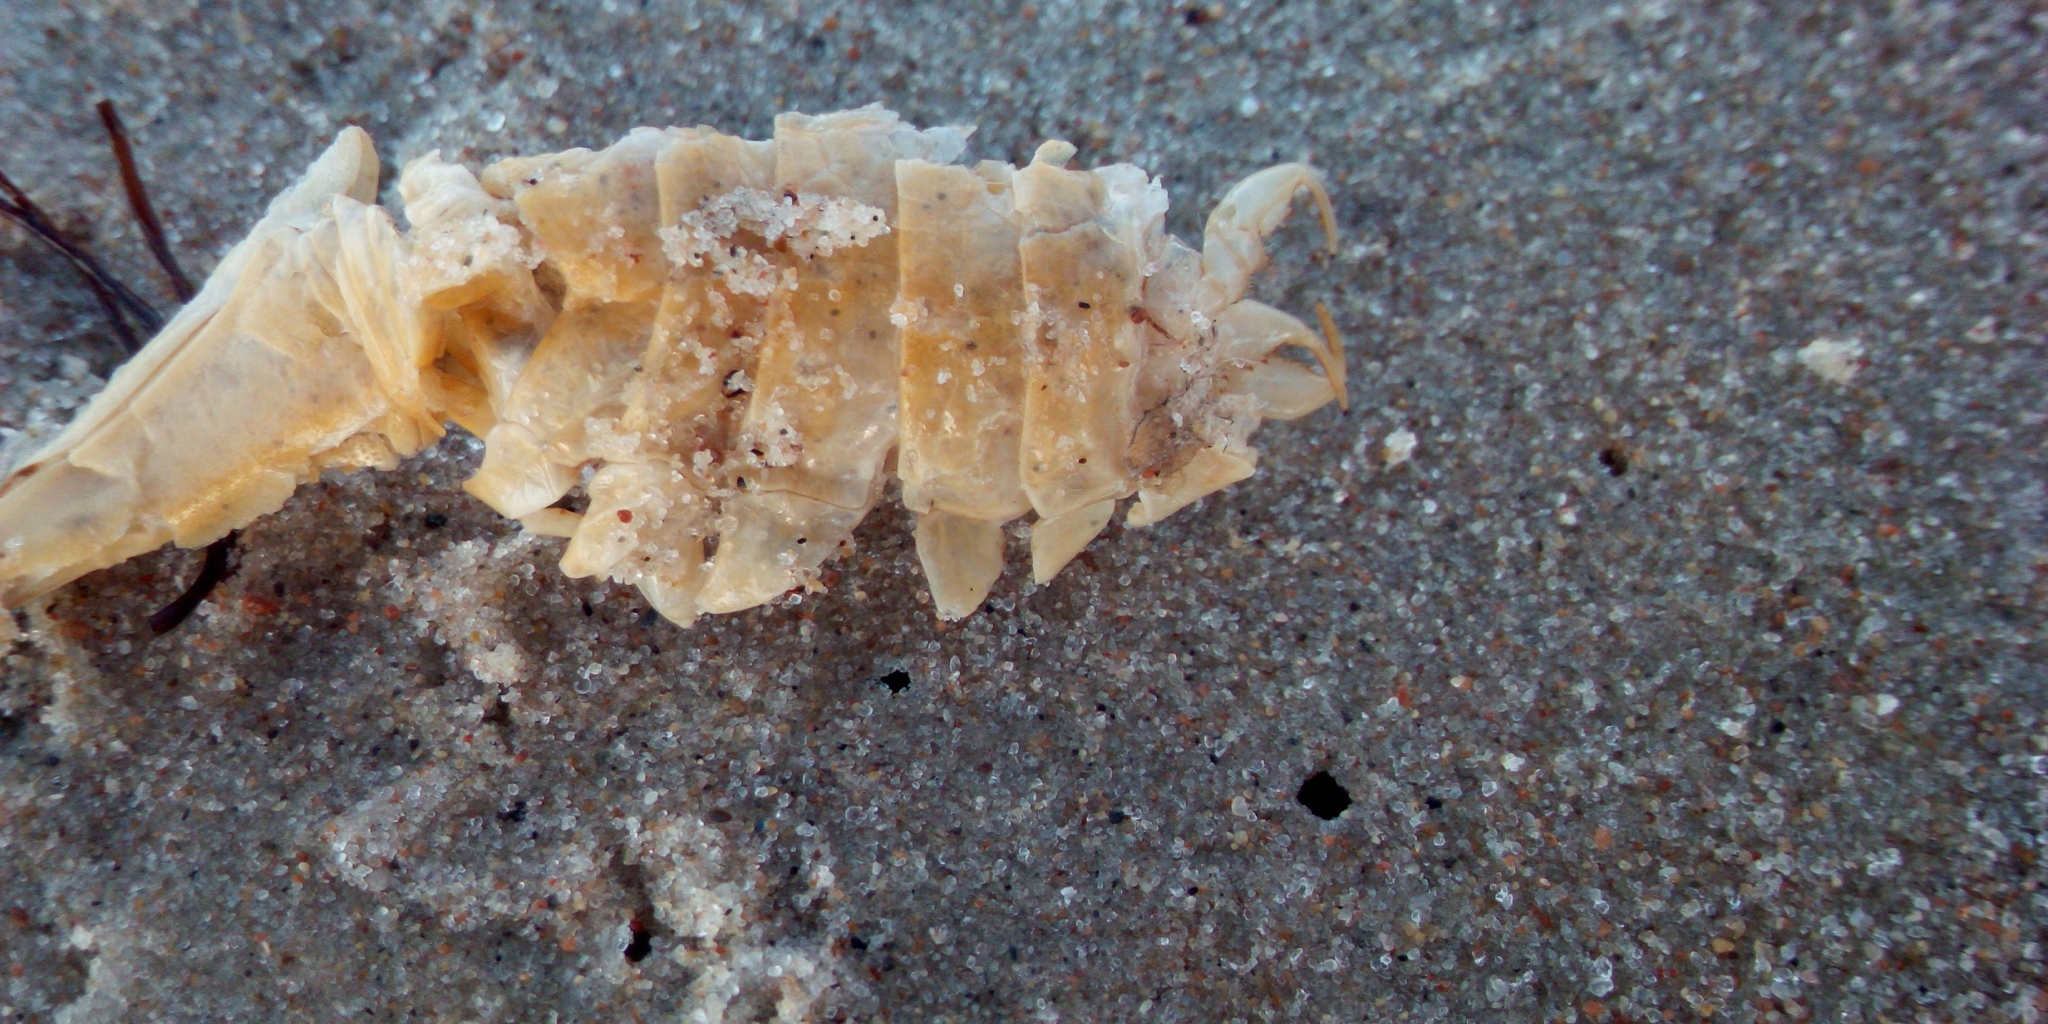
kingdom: Animalia
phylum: Arthropoda
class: Malacostraca
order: Isopoda
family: Chaetiliidae
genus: Saduria
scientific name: Saduria entomon
